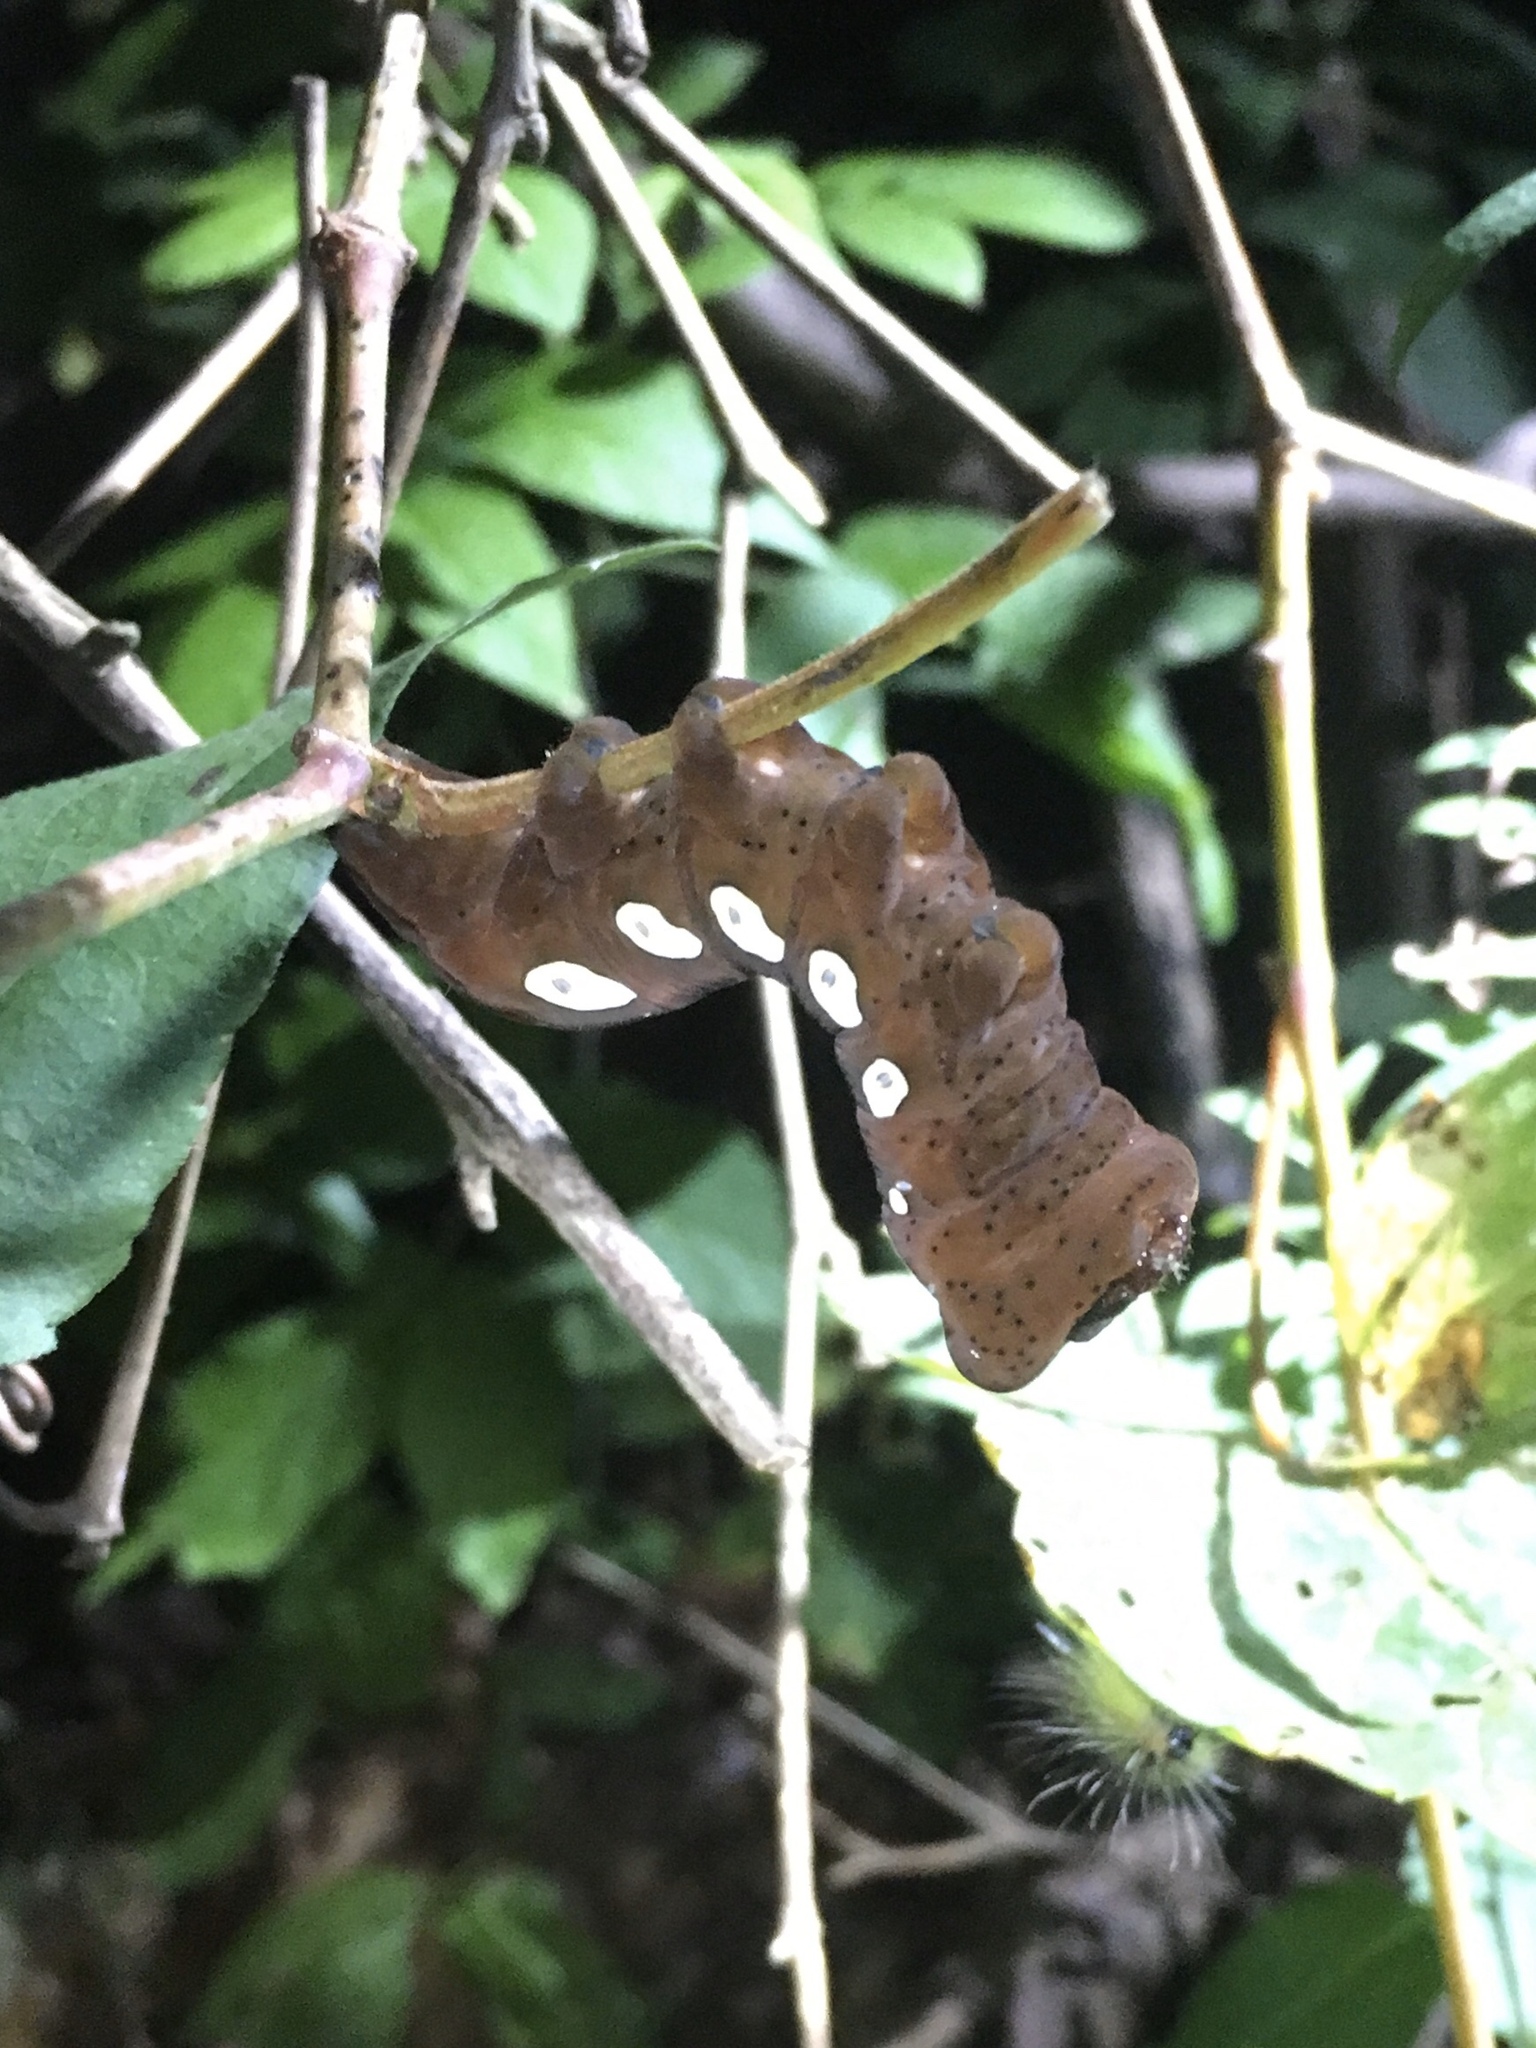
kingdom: Animalia
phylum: Arthropoda
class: Insecta
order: Lepidoptera
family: Sphingidae
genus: Eumorpha
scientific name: Eumorpha pandorus
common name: Pandora sphinx
